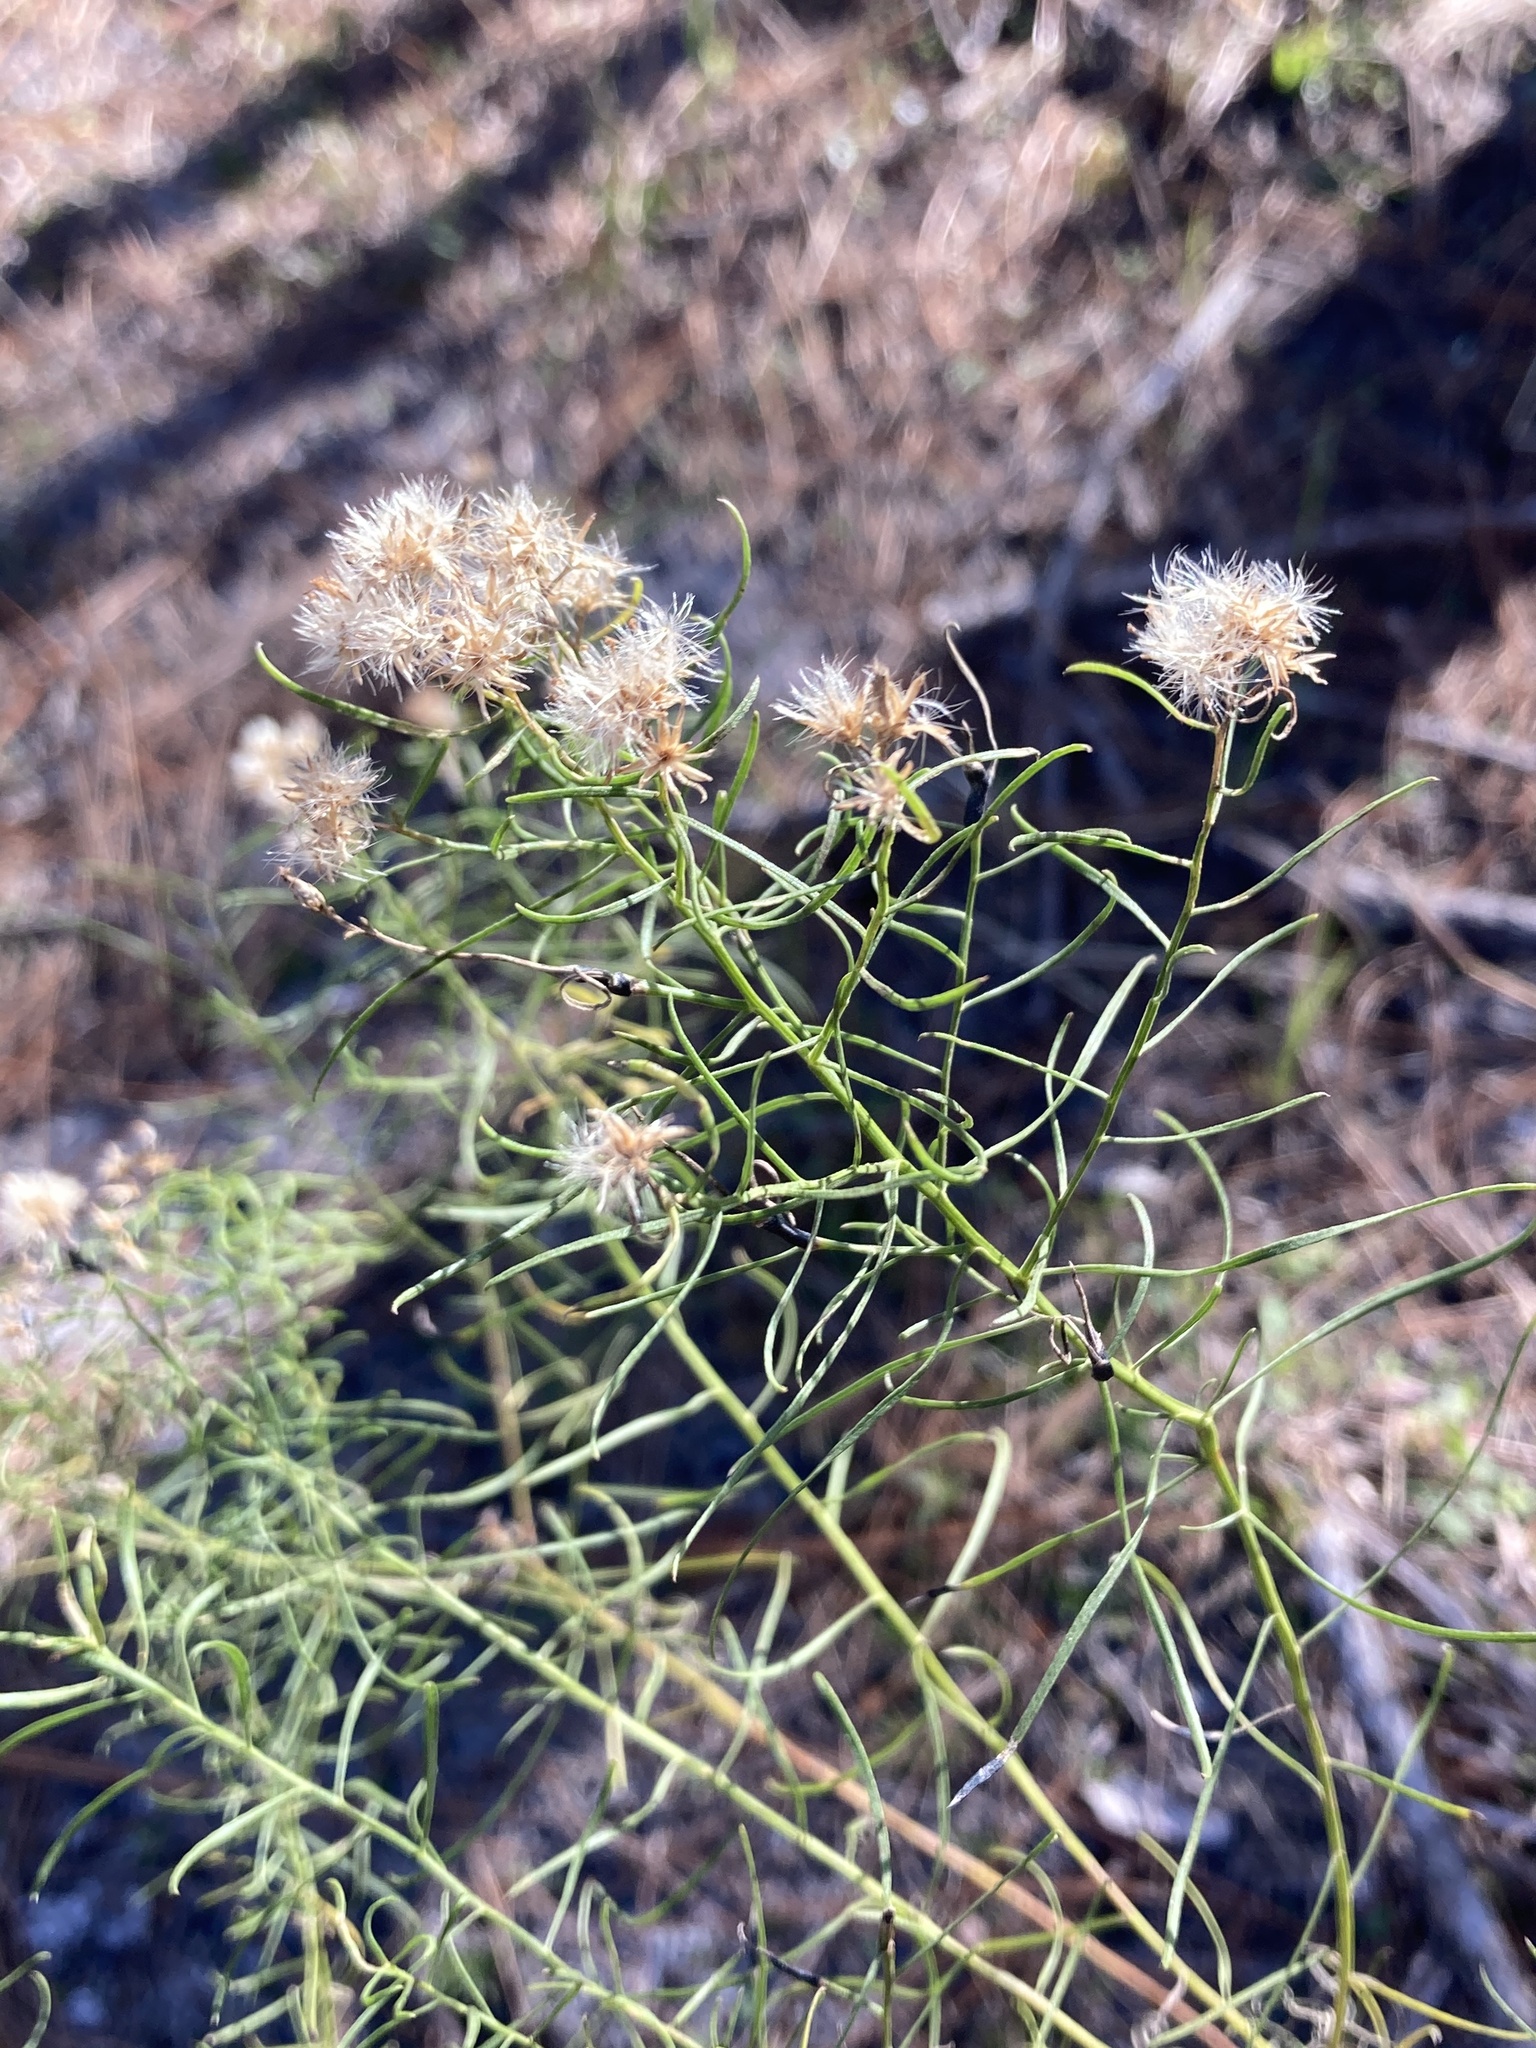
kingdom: Plantae
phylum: Tracheophyta
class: Magnoliopsida
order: Asterales
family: Asteraceae
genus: Euthamia
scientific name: Euthamia caroliniana
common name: Coastal plain goldentop
